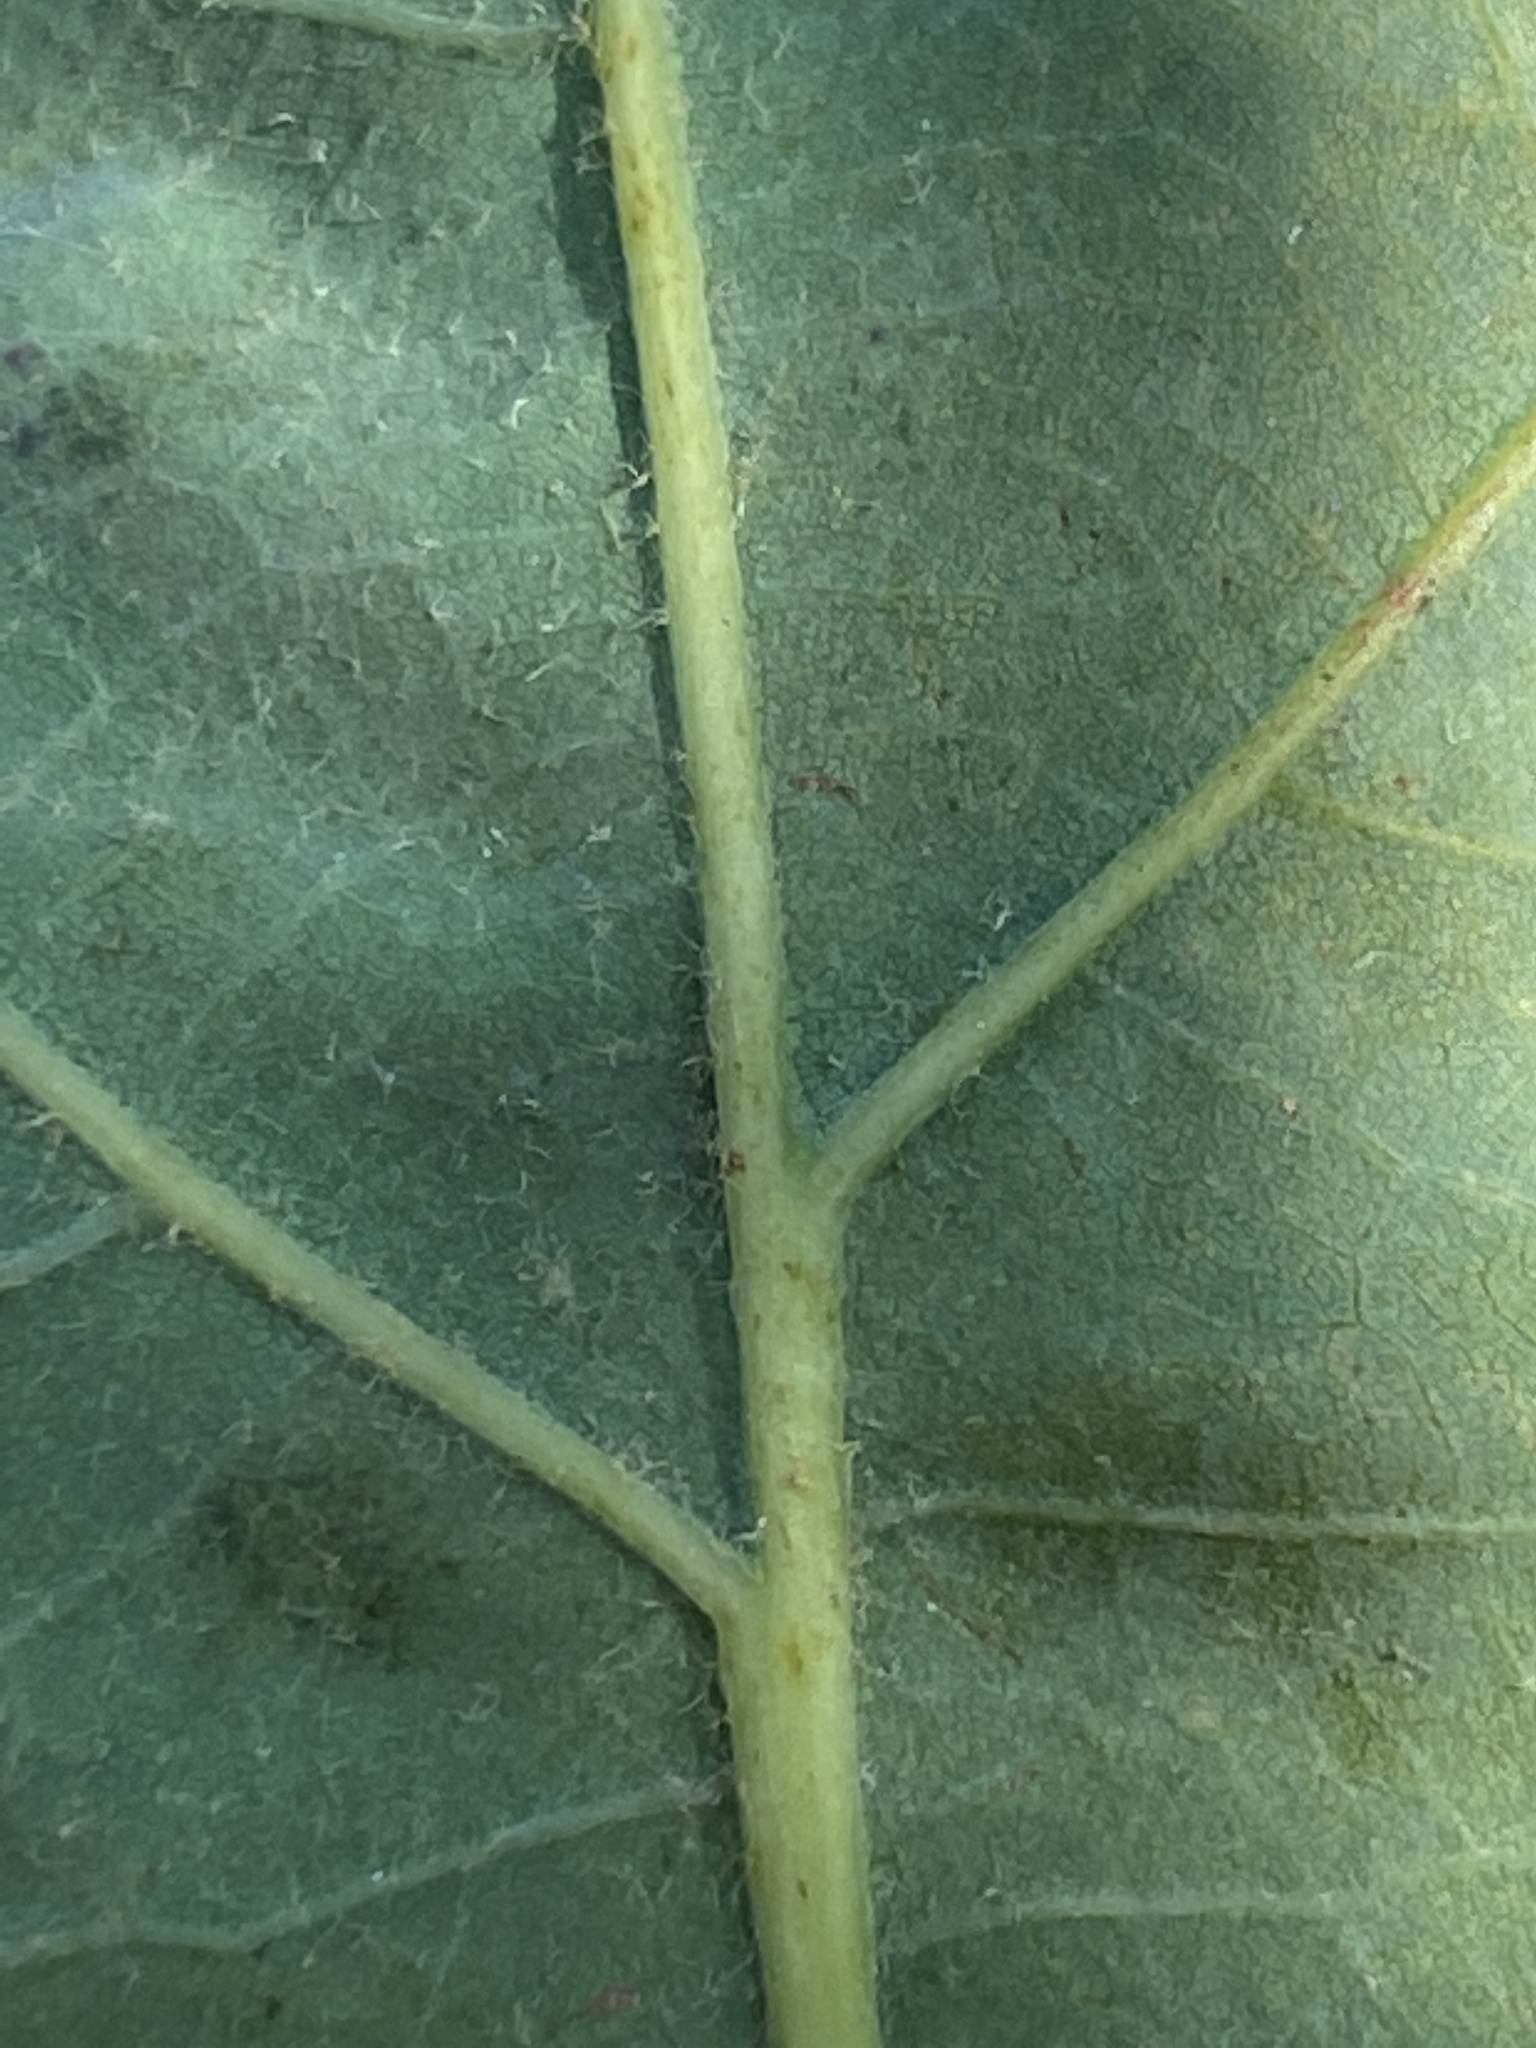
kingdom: Plantae
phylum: Tracheophyta
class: Magnoliopsida
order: Fagales
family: Fagaceae
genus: Quercus
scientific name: Quercus margaretiae
